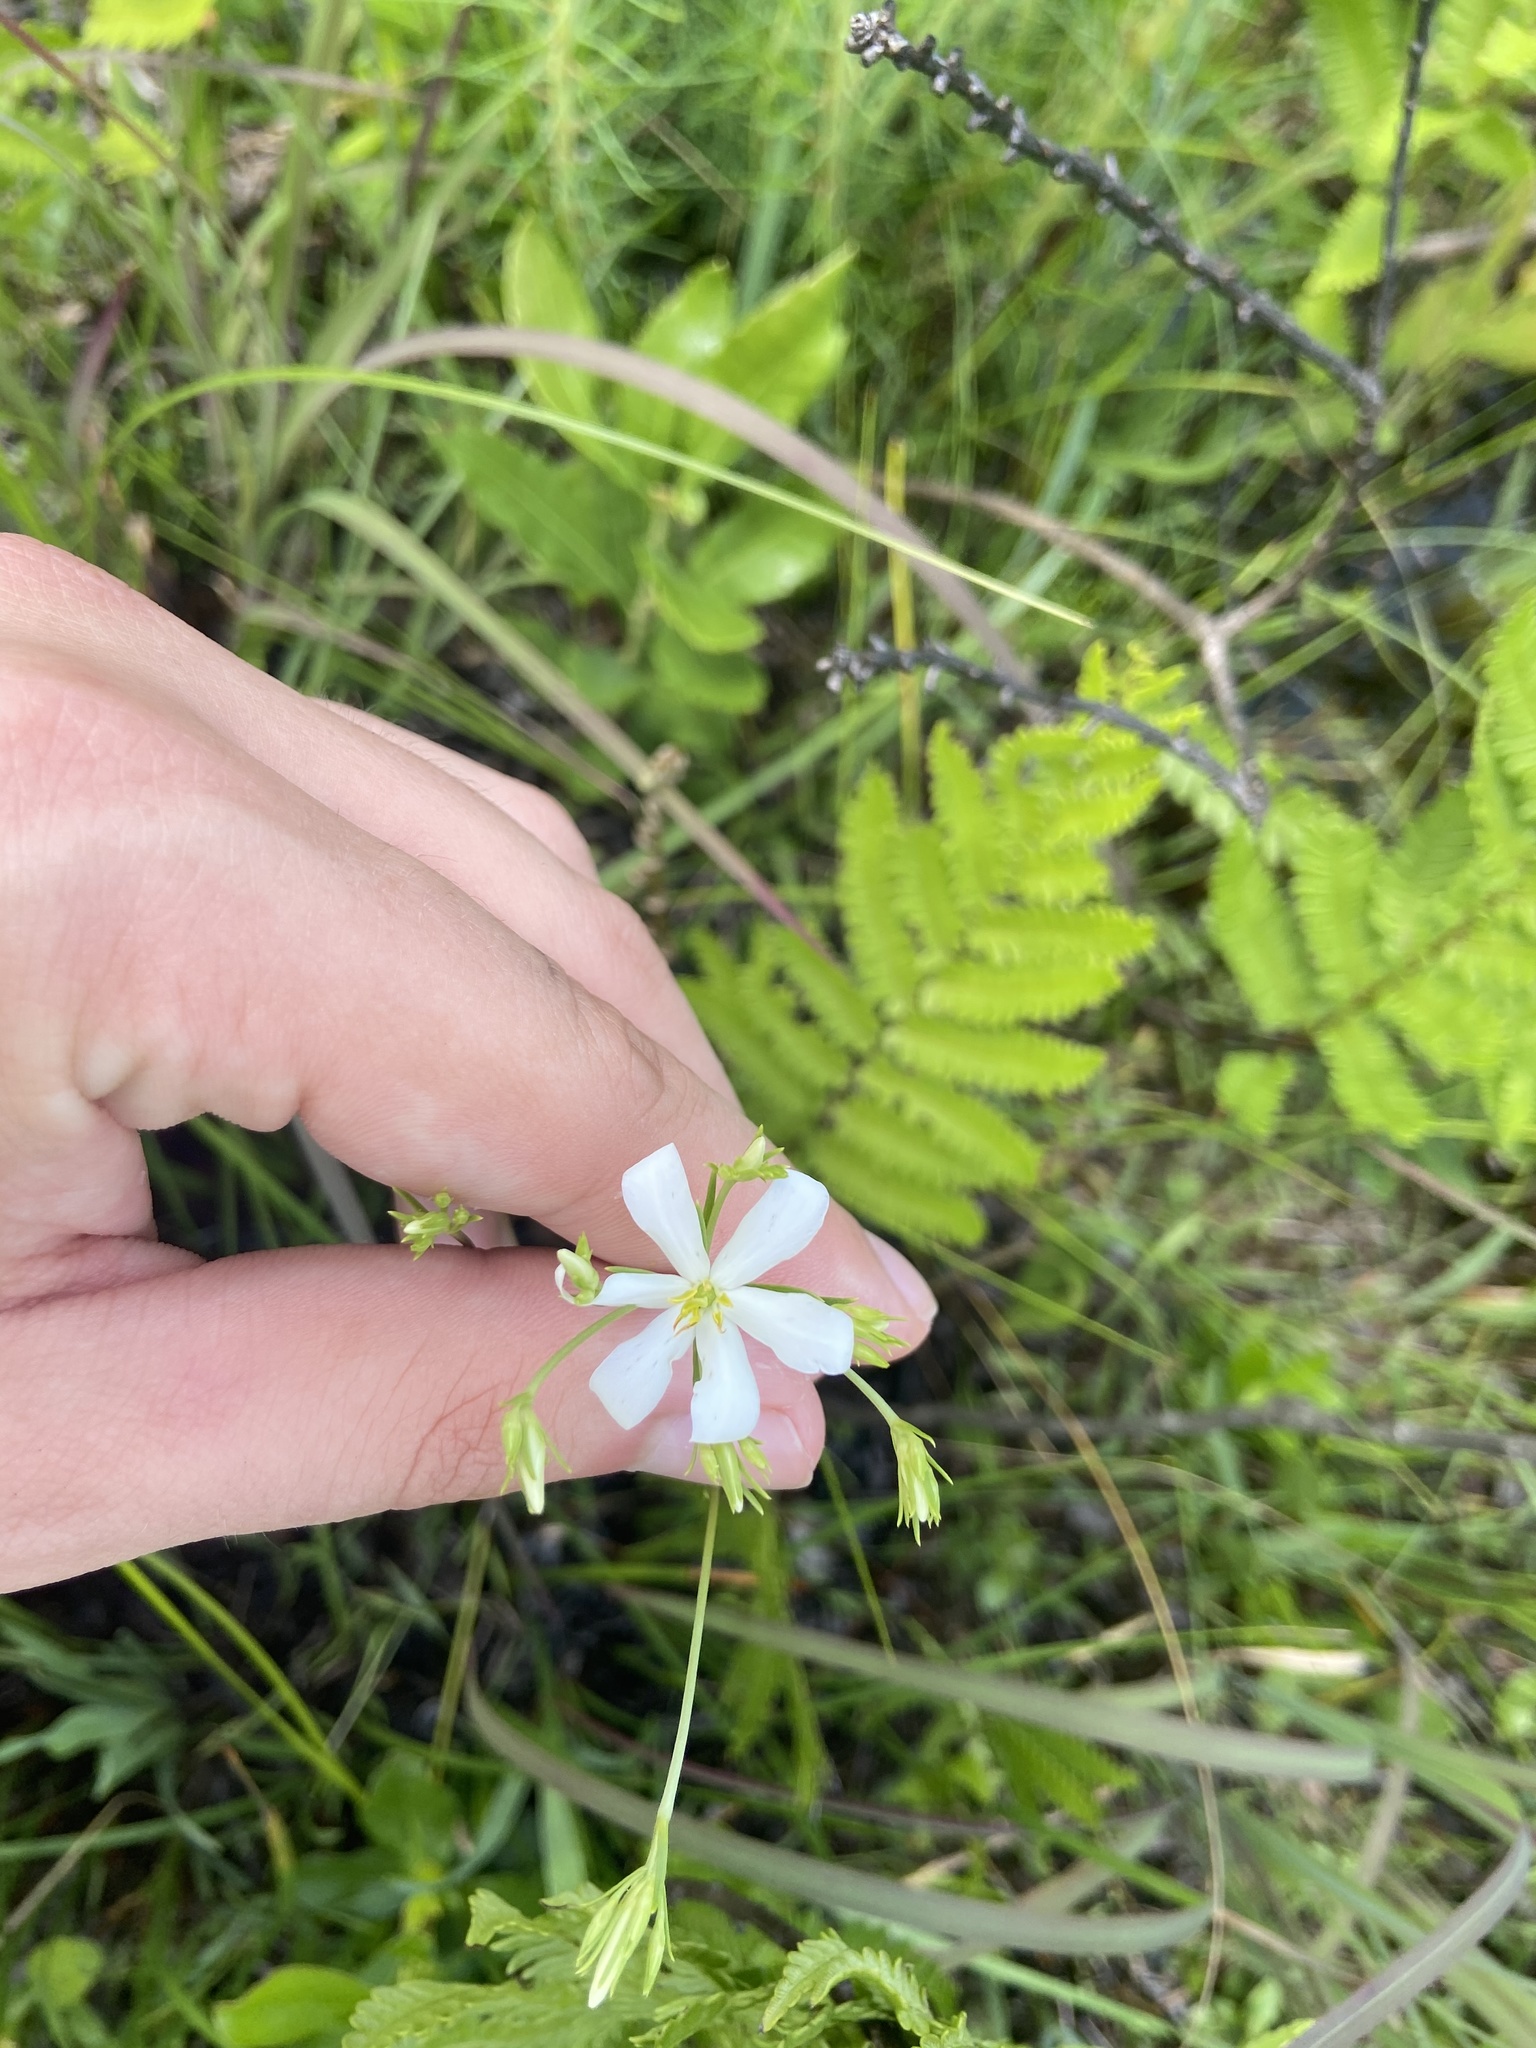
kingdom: Plantae
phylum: Tracheophyta
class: Magnoliopsida
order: Gentianales
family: Gentianaceae
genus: Sabatia
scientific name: Sabatia difformis
